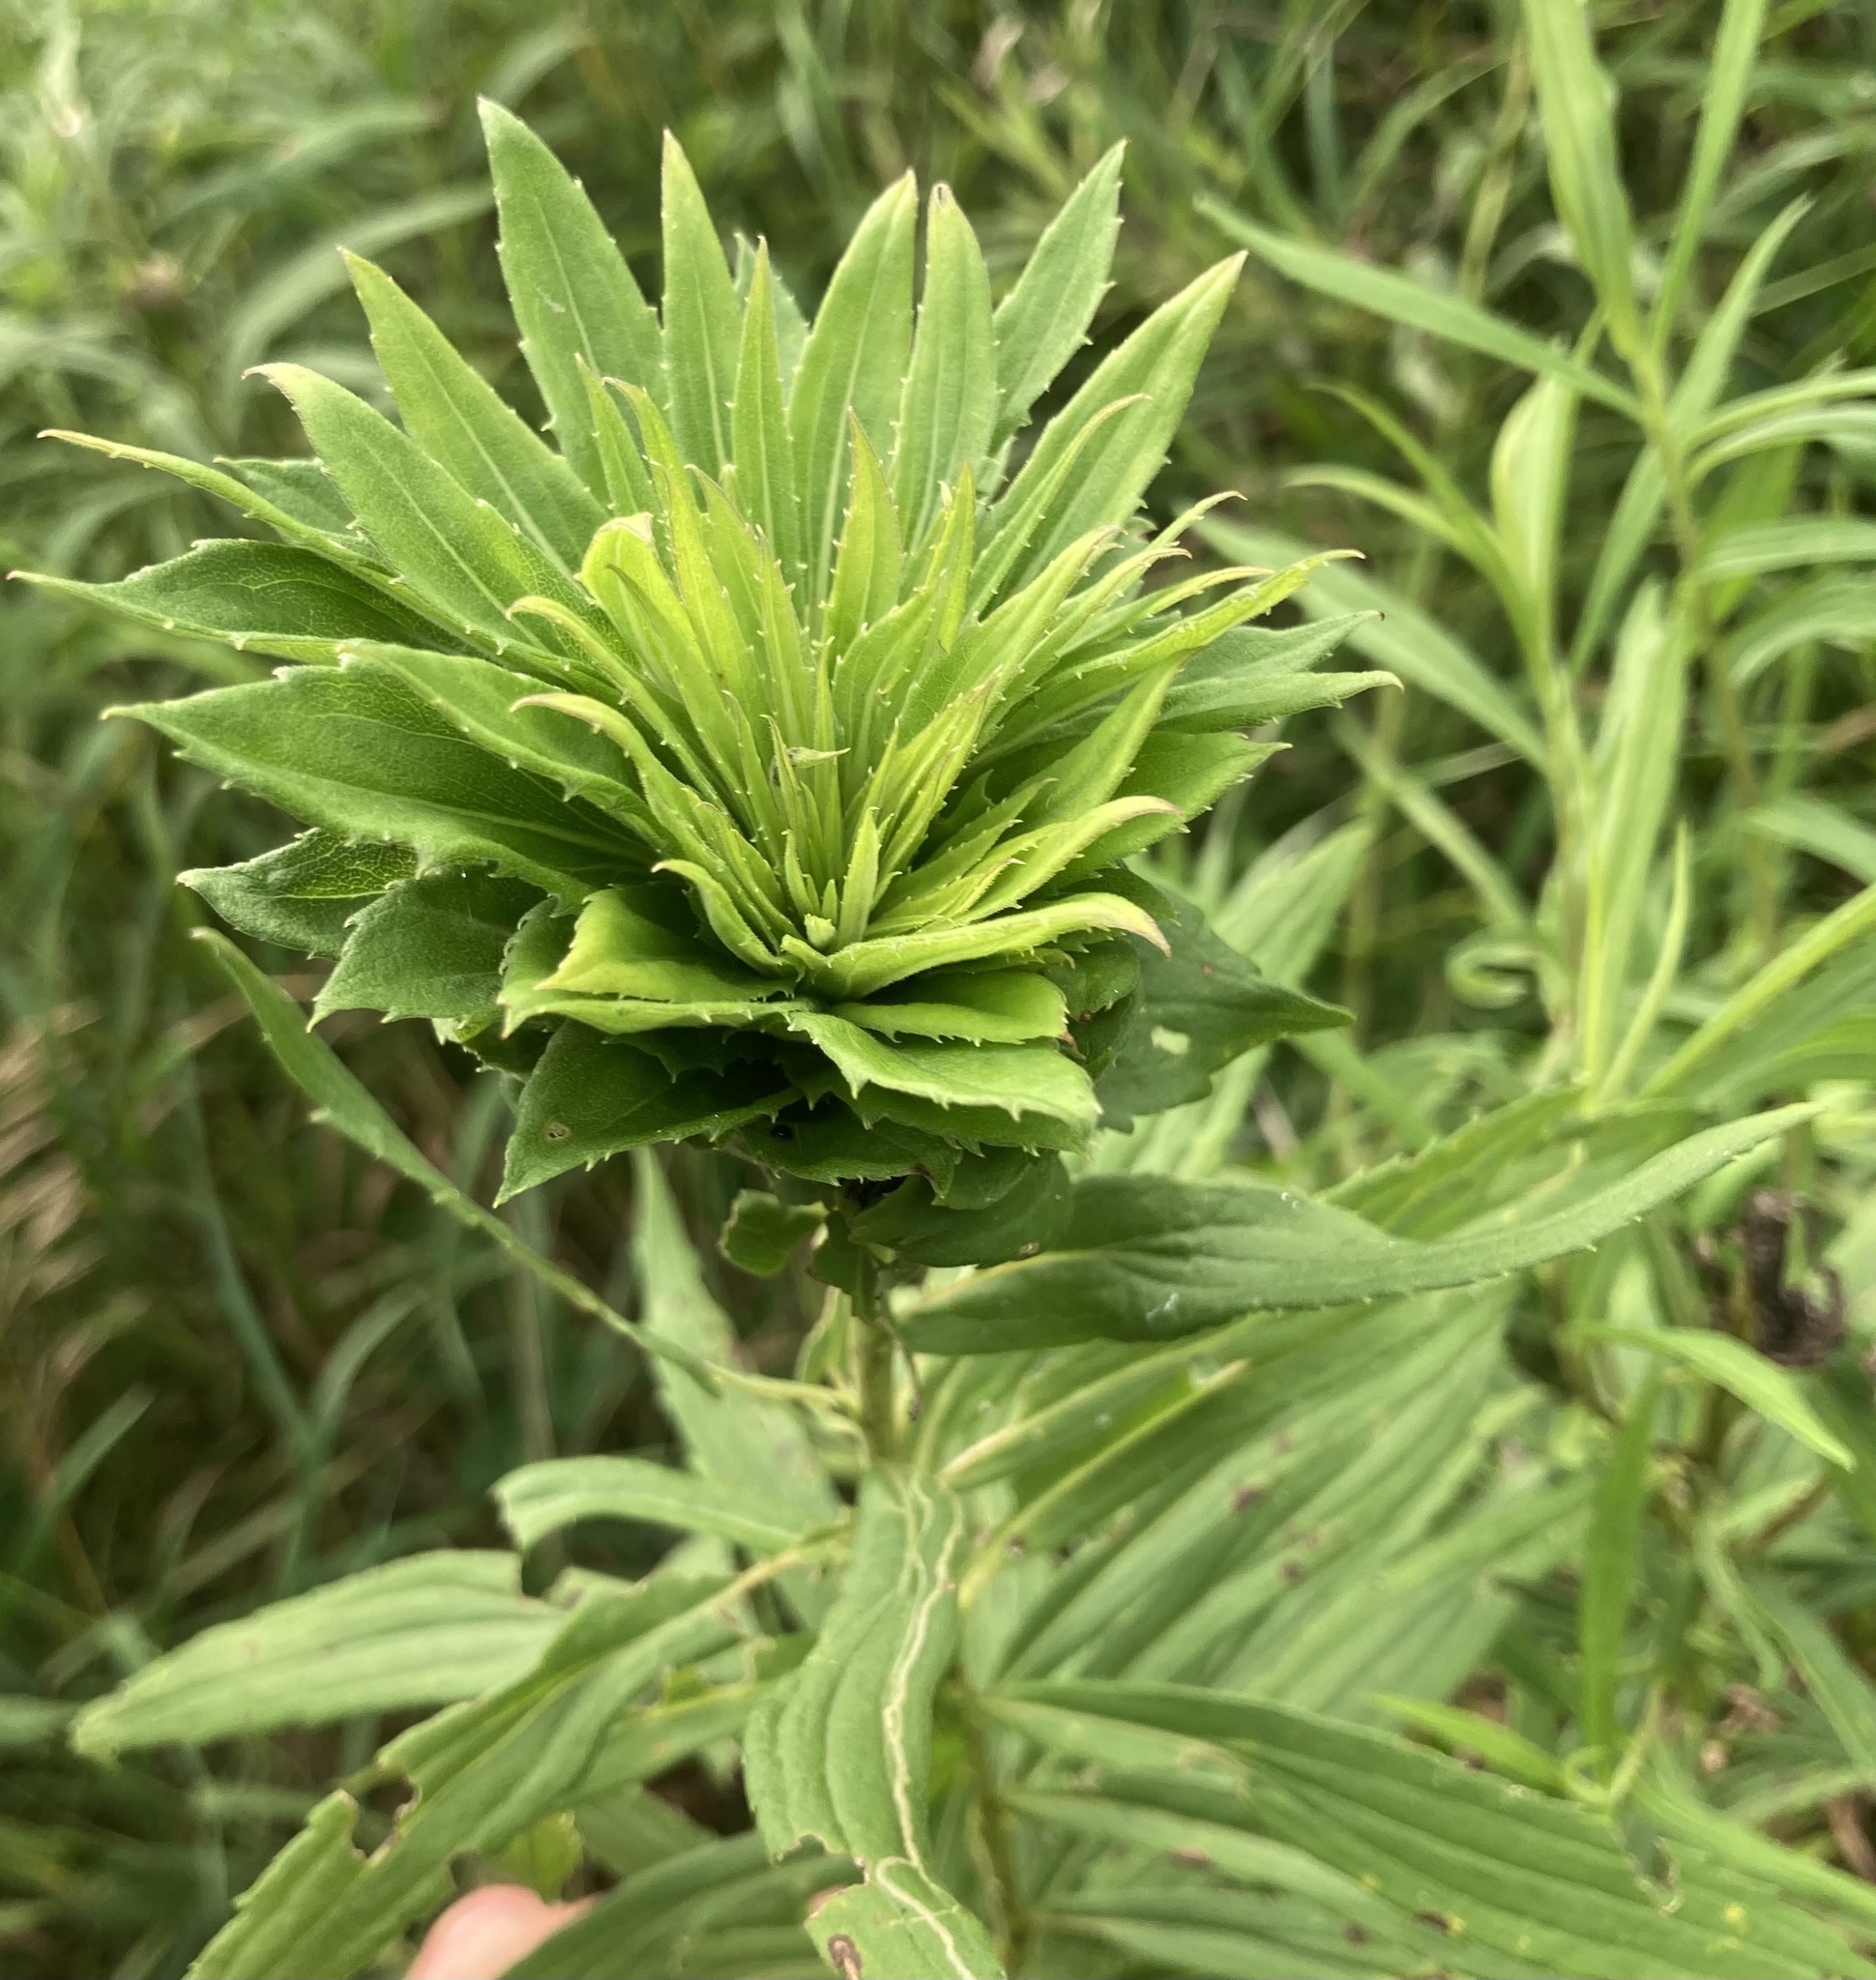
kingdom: Animalia
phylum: Arthropoda
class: Insecta
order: Diptera
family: Cecidomyiidae
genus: Rhopalomyia
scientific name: Rhopalomyia solidaginis
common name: Goldenrod bunch gall midge
